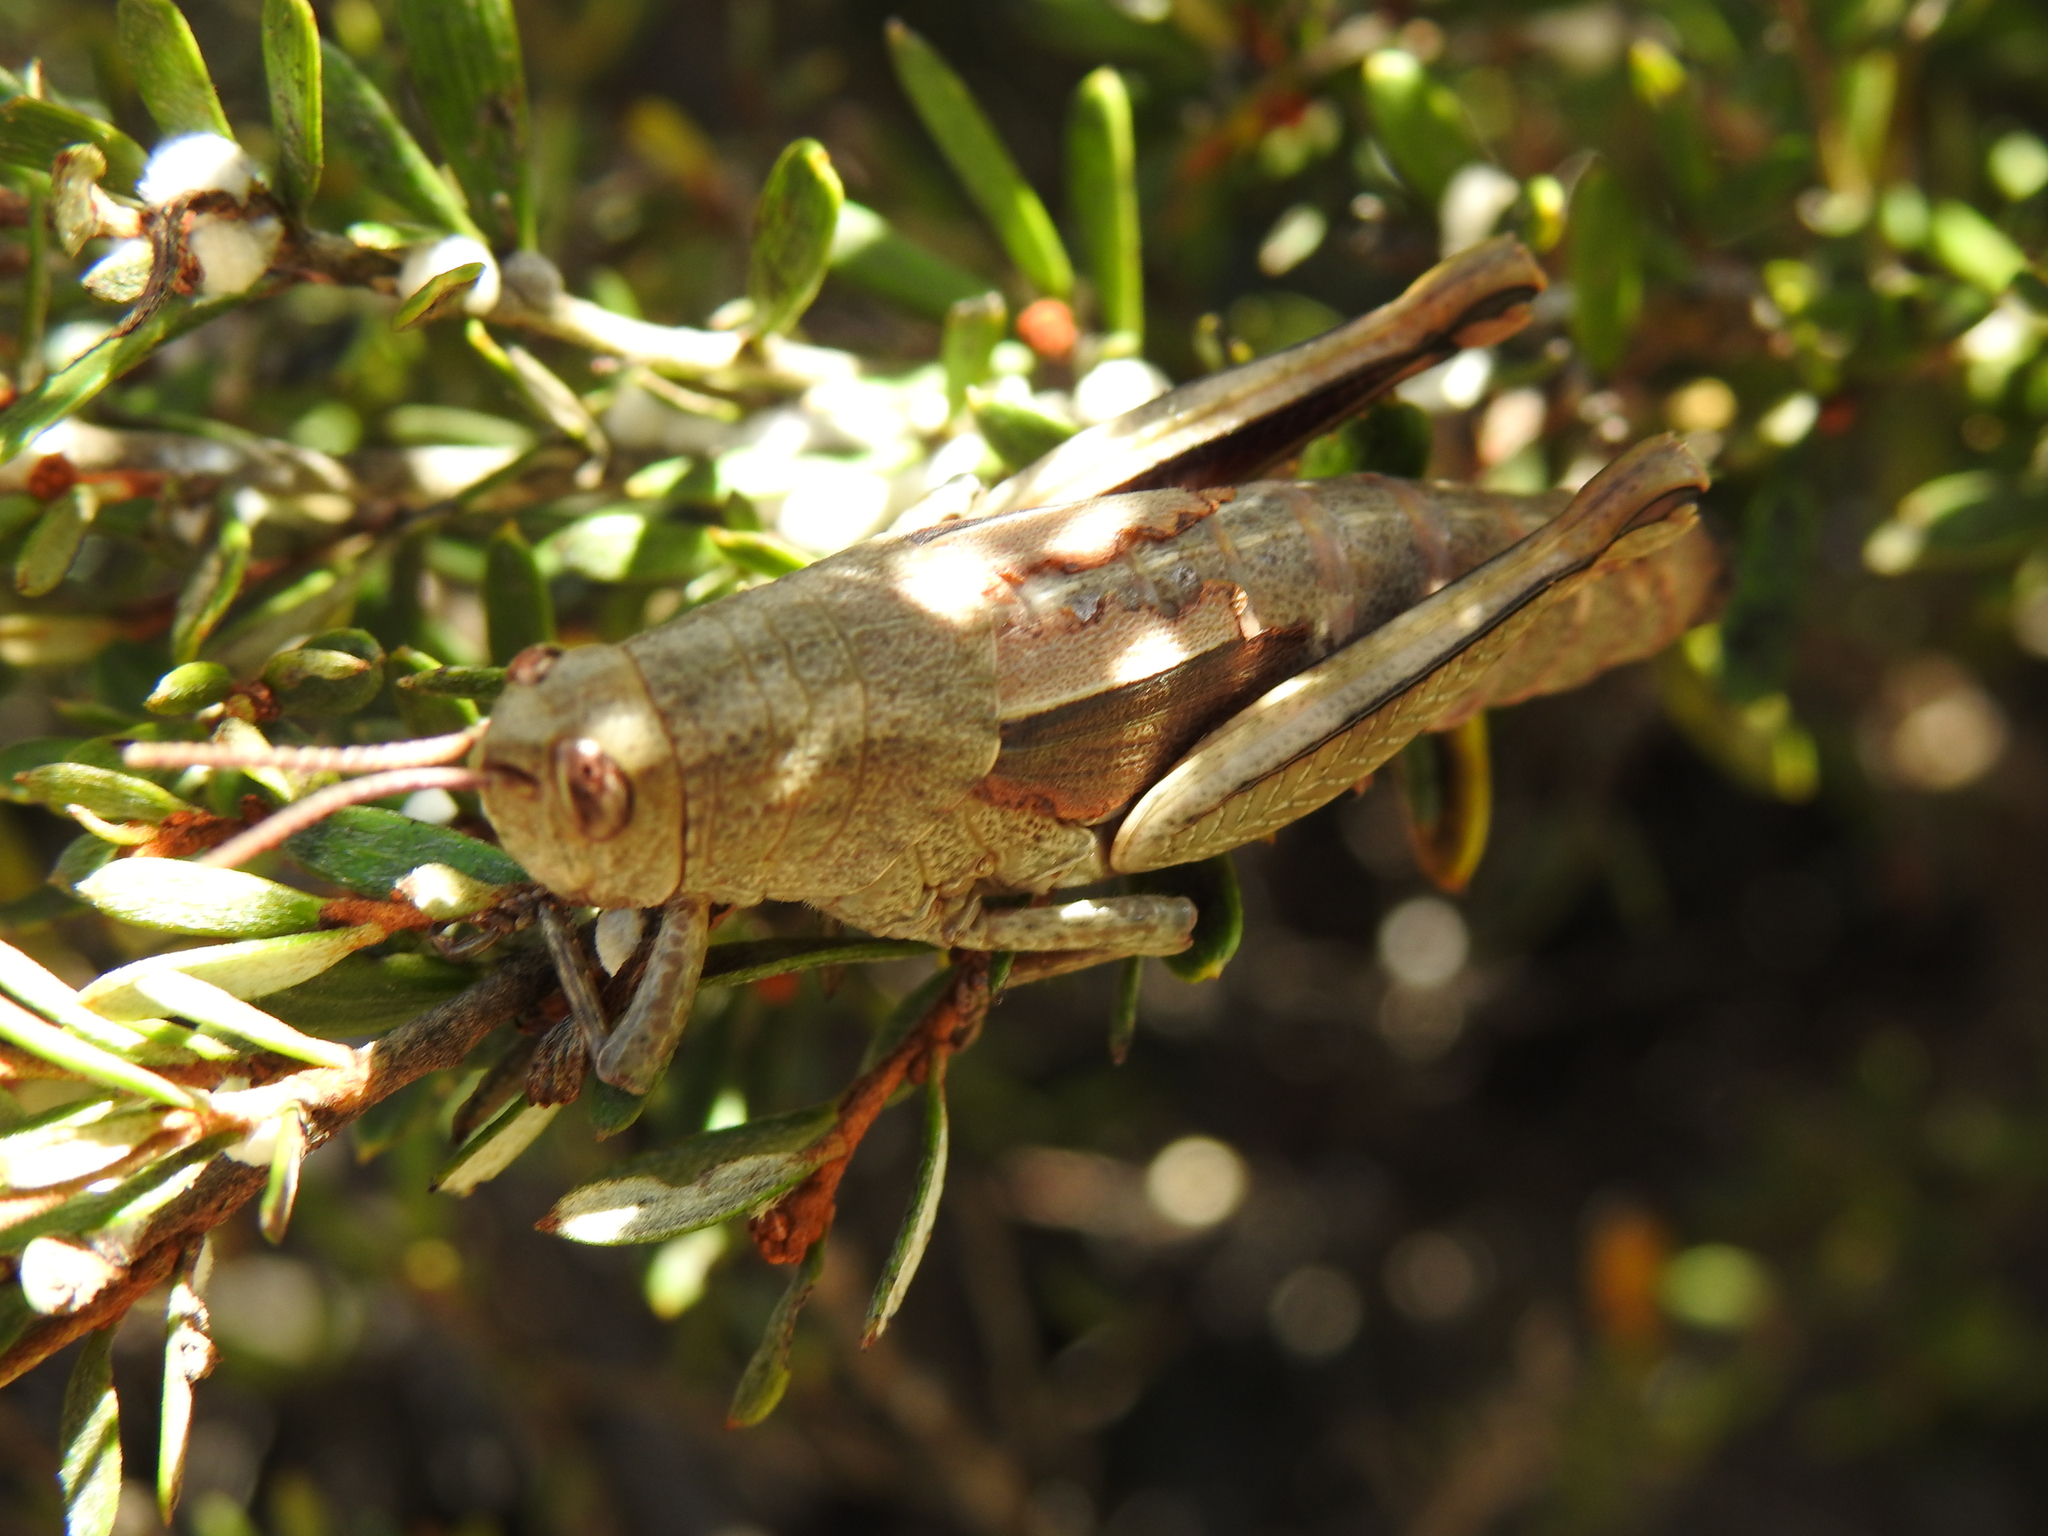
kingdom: Animalia
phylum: Arthropoda
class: Insecta
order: Orthoptera
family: Acrididae
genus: Percassa
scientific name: Percassa rugifrons
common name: Mountain grasshopper
